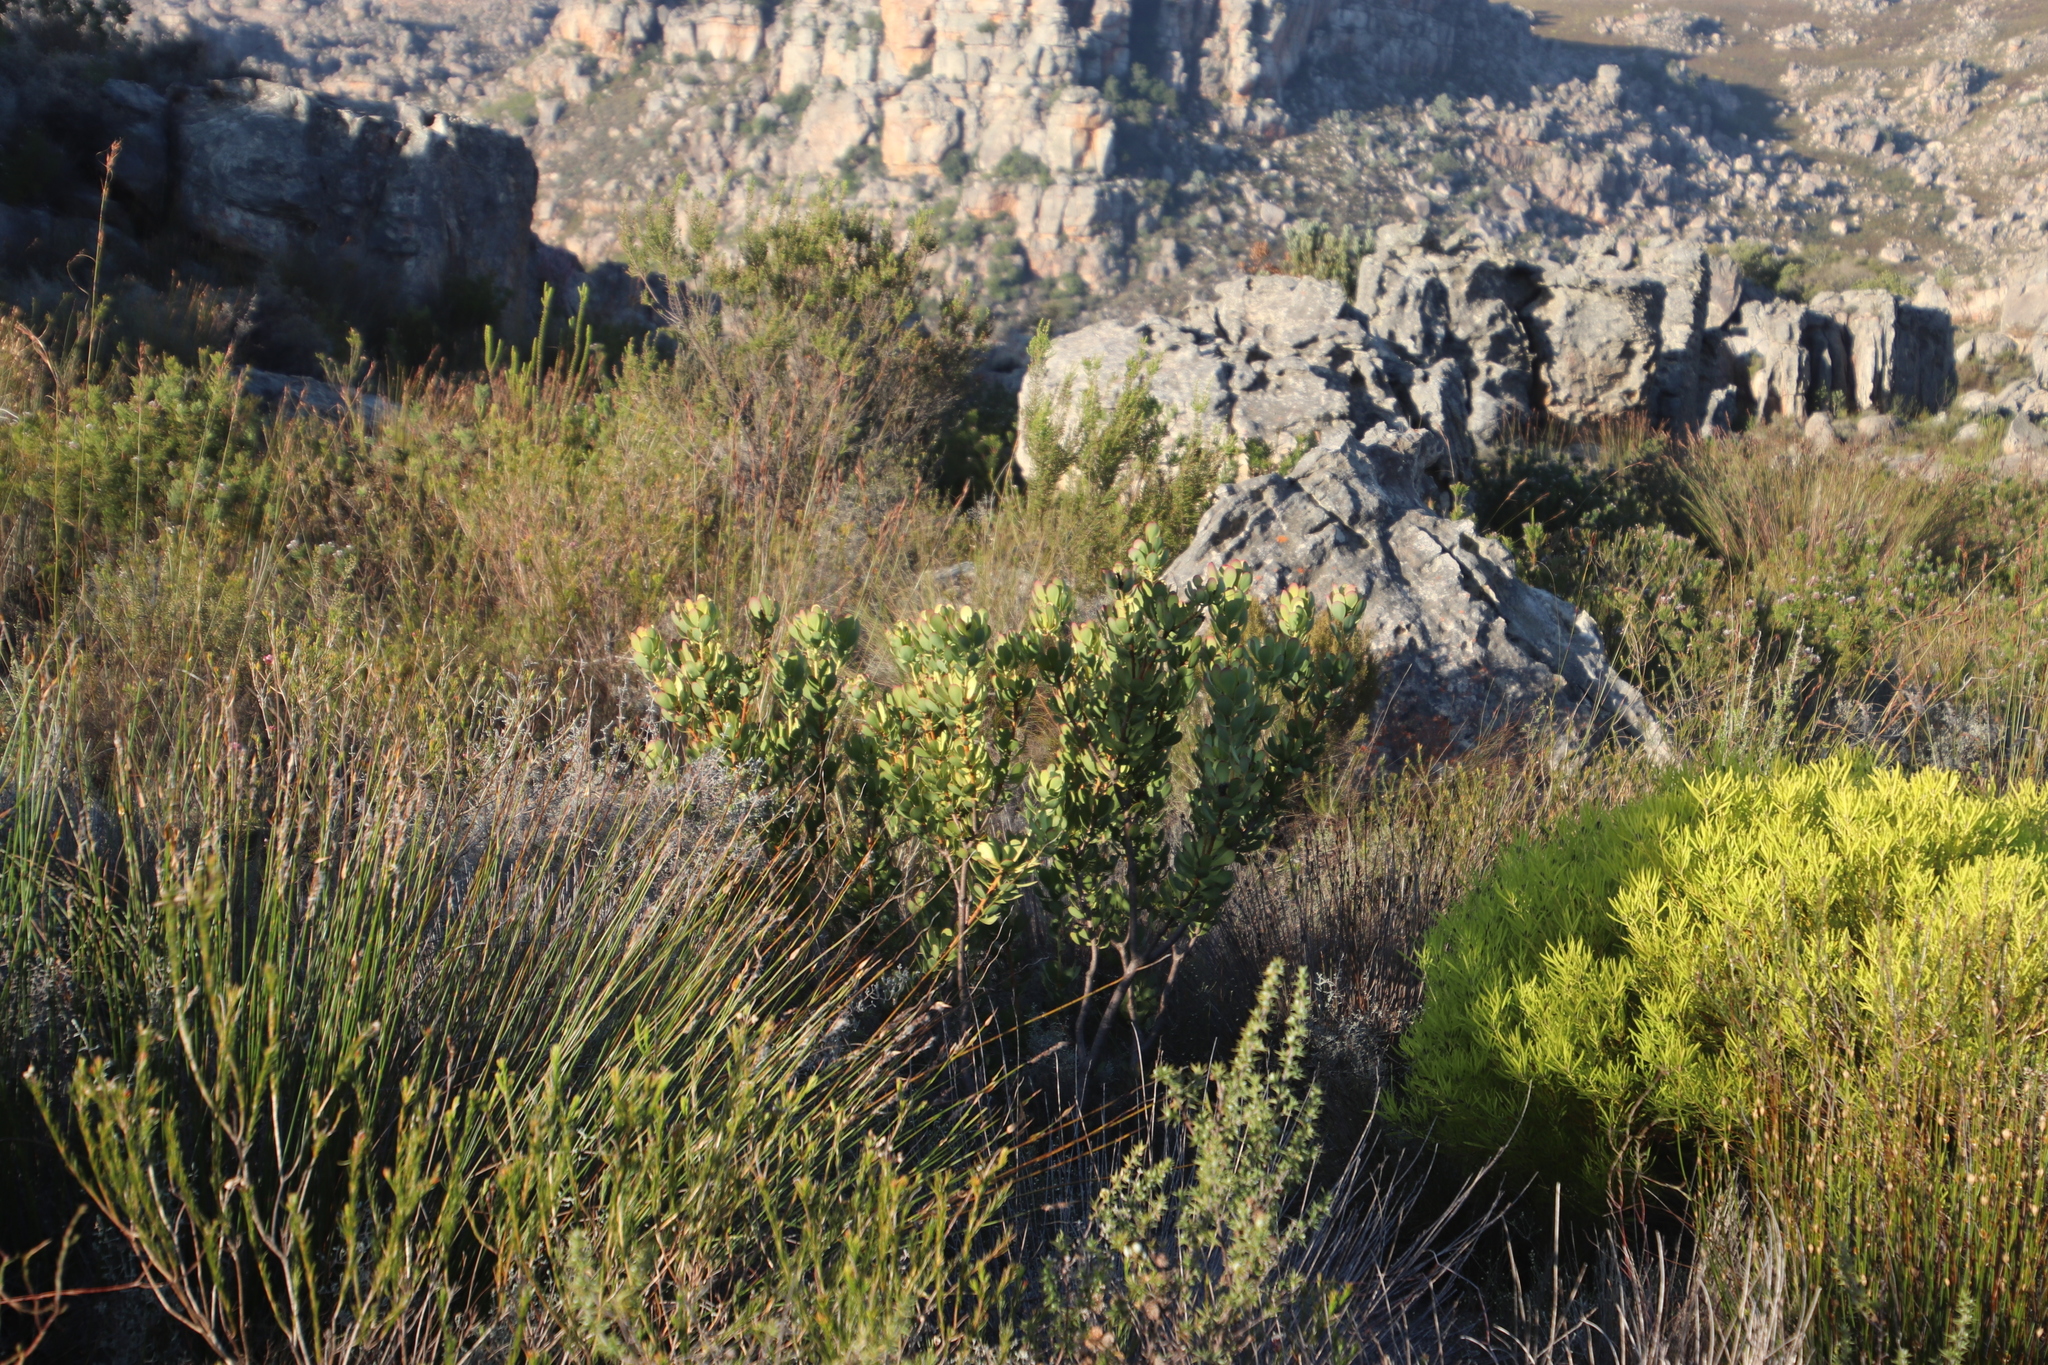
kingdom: Plantae
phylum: Tracheophyta
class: Magnoliopsida
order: Proteales
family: Proteaceae
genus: Leucadendron
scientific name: Leucadendron arcuatum
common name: Red-edge conebush
